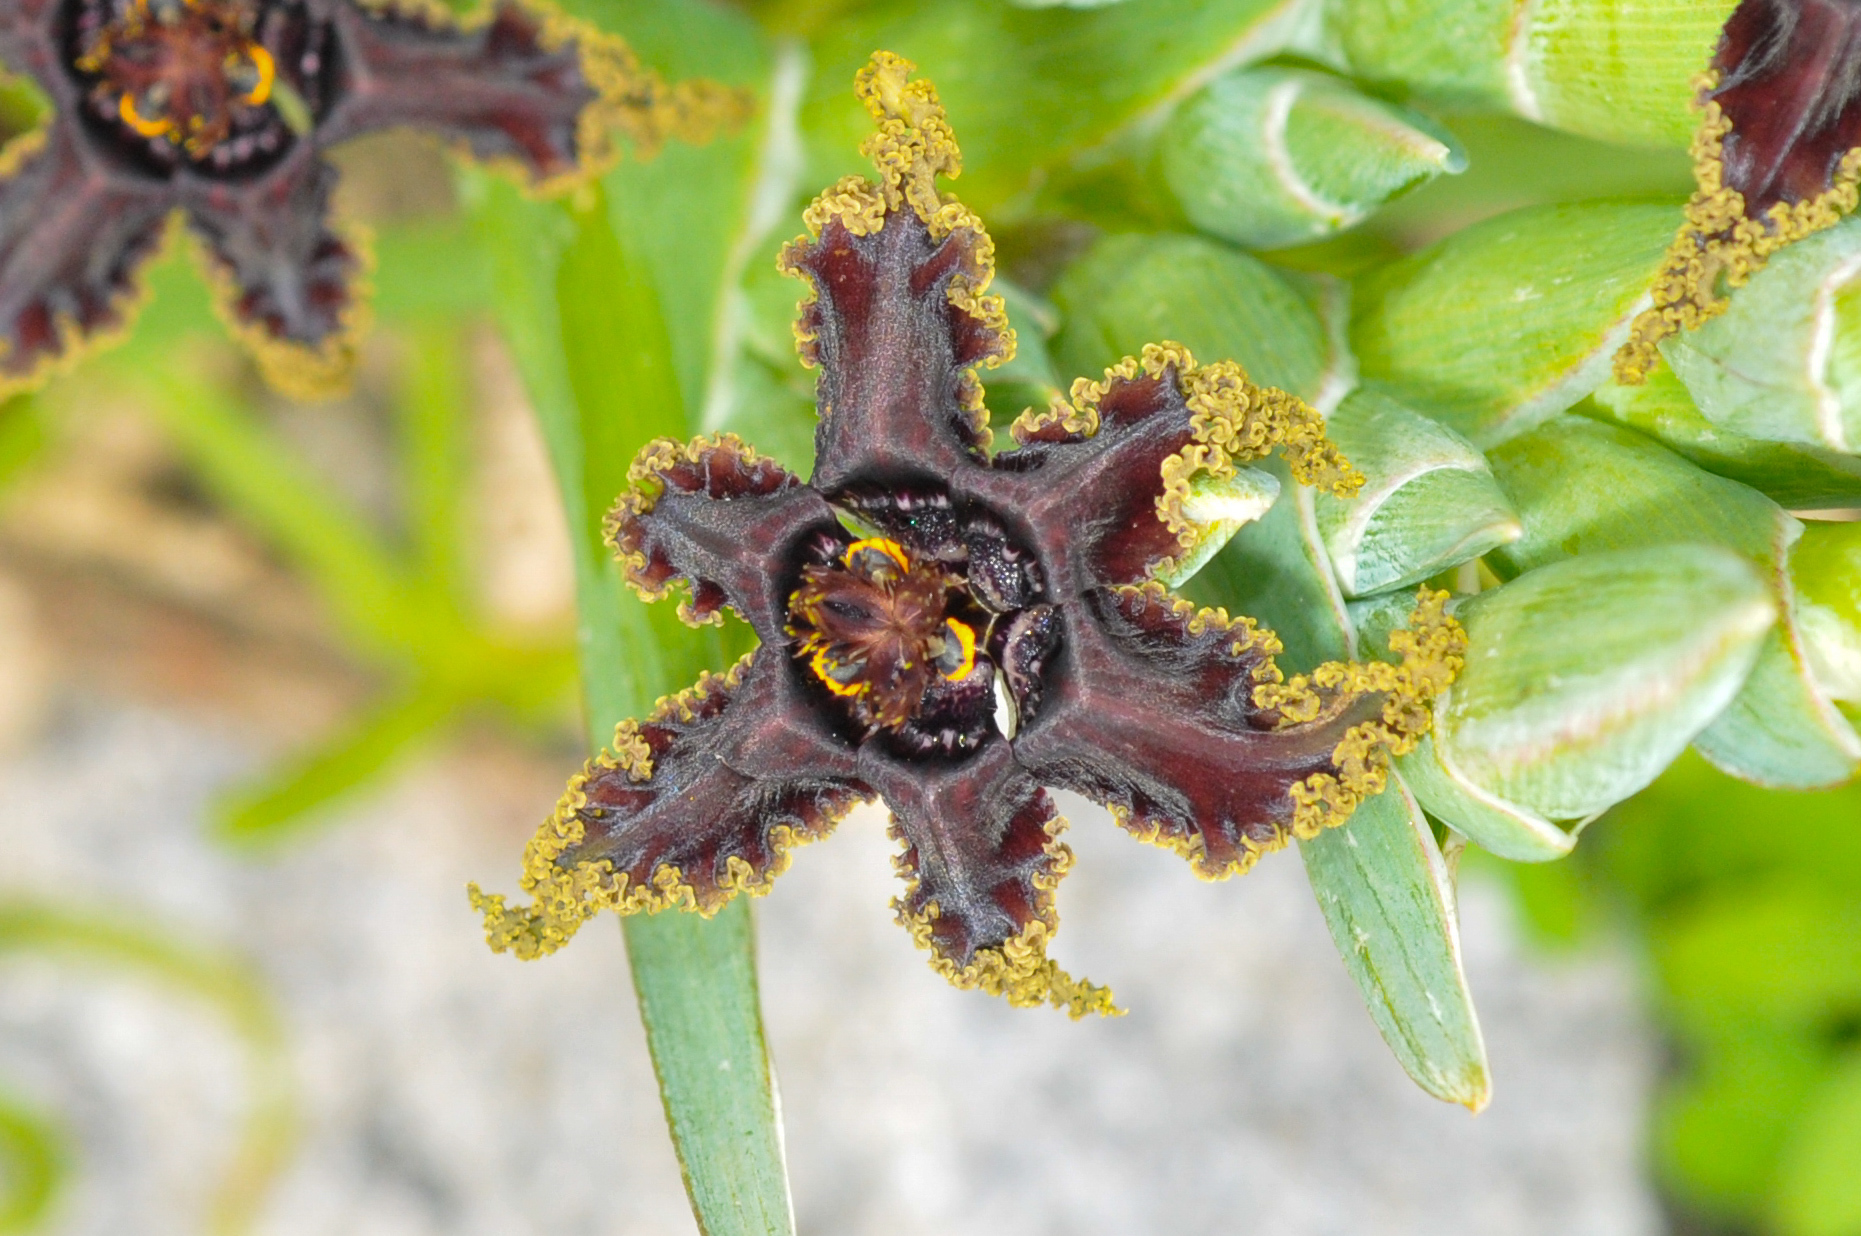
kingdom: Plantae
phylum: Tracheophyta
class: Liliopsida
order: Asparagales
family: Iridaceae
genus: Ferraria
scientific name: Ferraria crispa
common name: Black-flag
